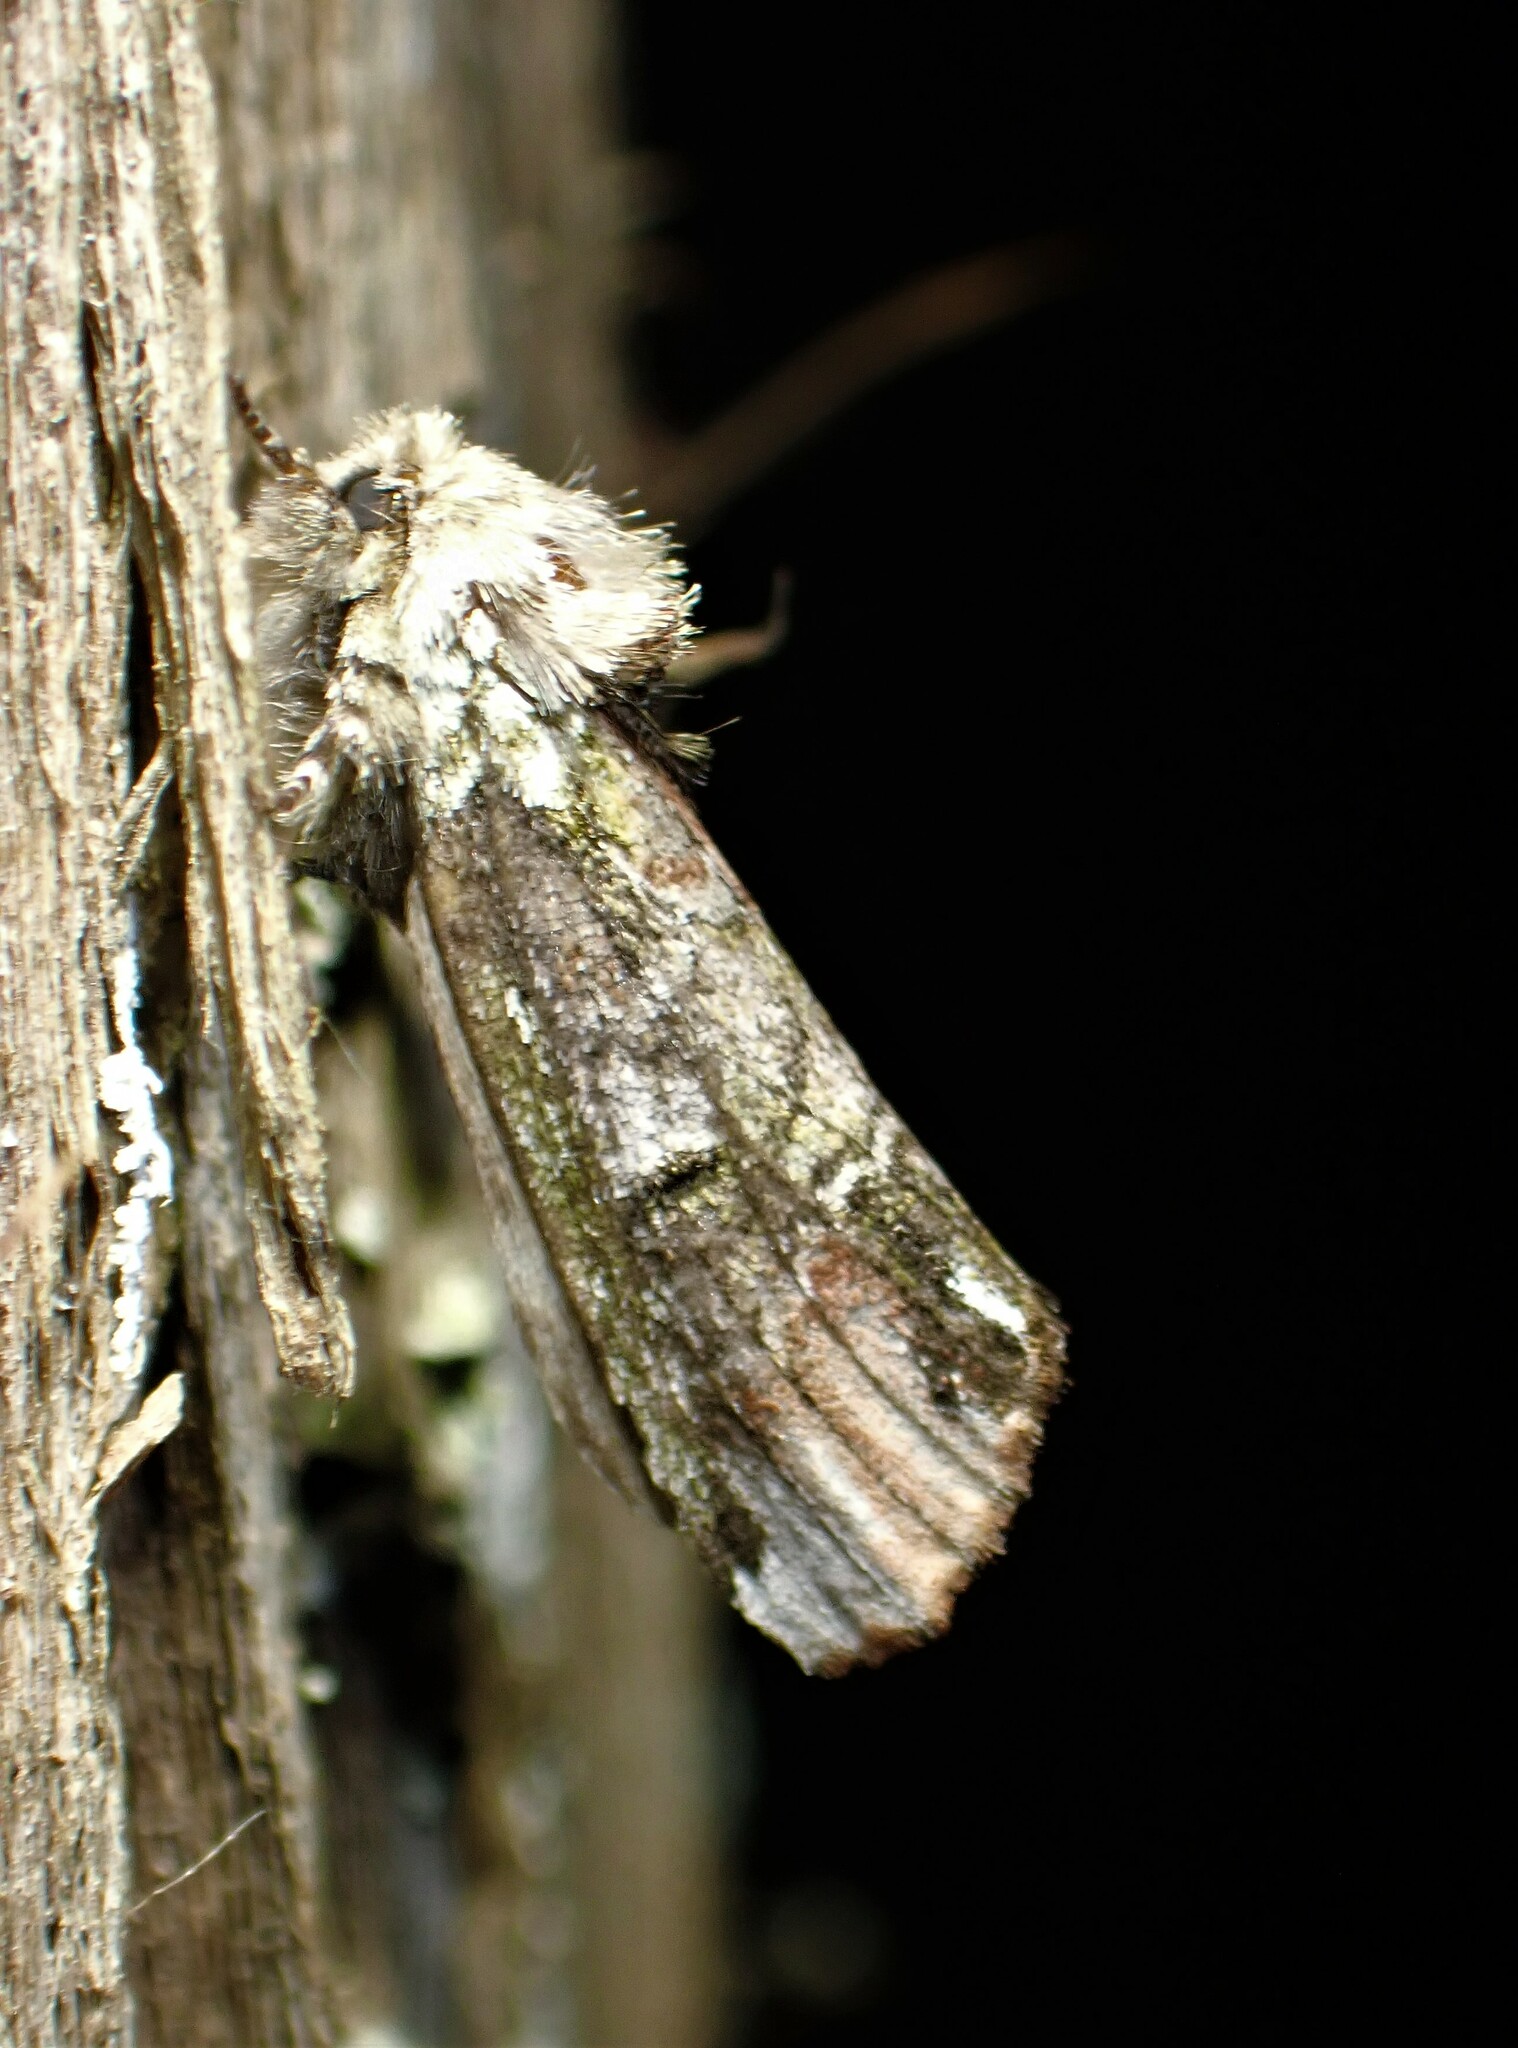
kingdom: Animalia
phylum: Arthropoda
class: Insecta
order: Lepidoptera
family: Notodontidae
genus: Schizura
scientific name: Schizura
